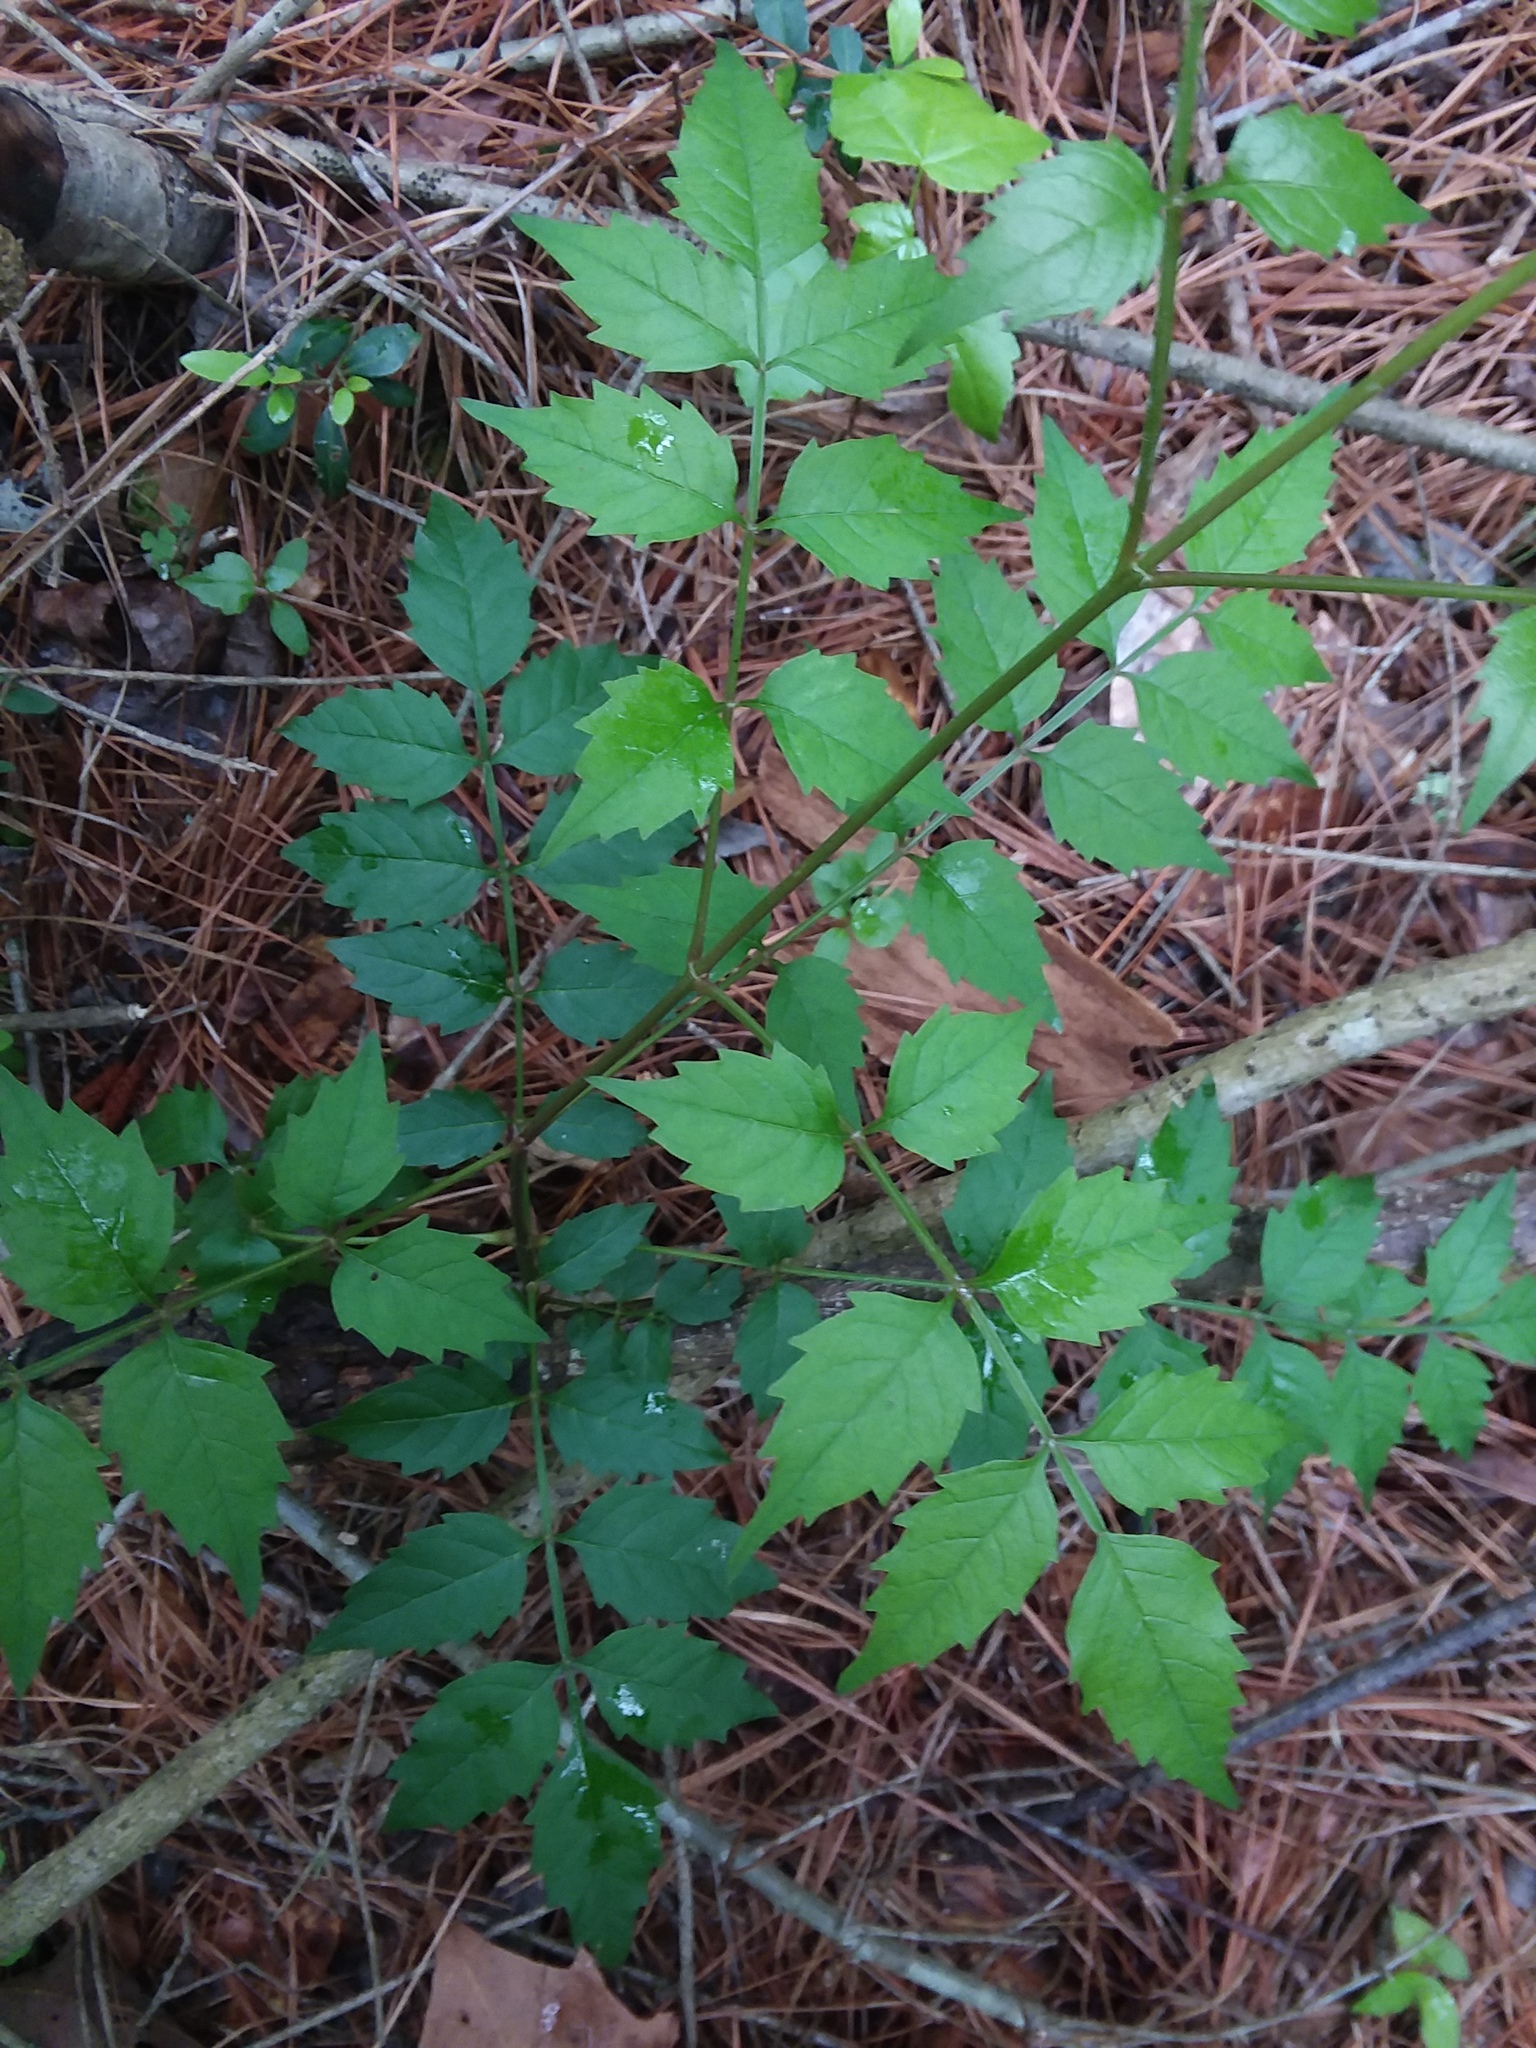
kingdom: Plantae
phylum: Tracheophyta
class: Magnoliopsida
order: Lamiales
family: Bignoniaceae
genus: Campsis
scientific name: Campsis radicans
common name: Trumpet-creeper
